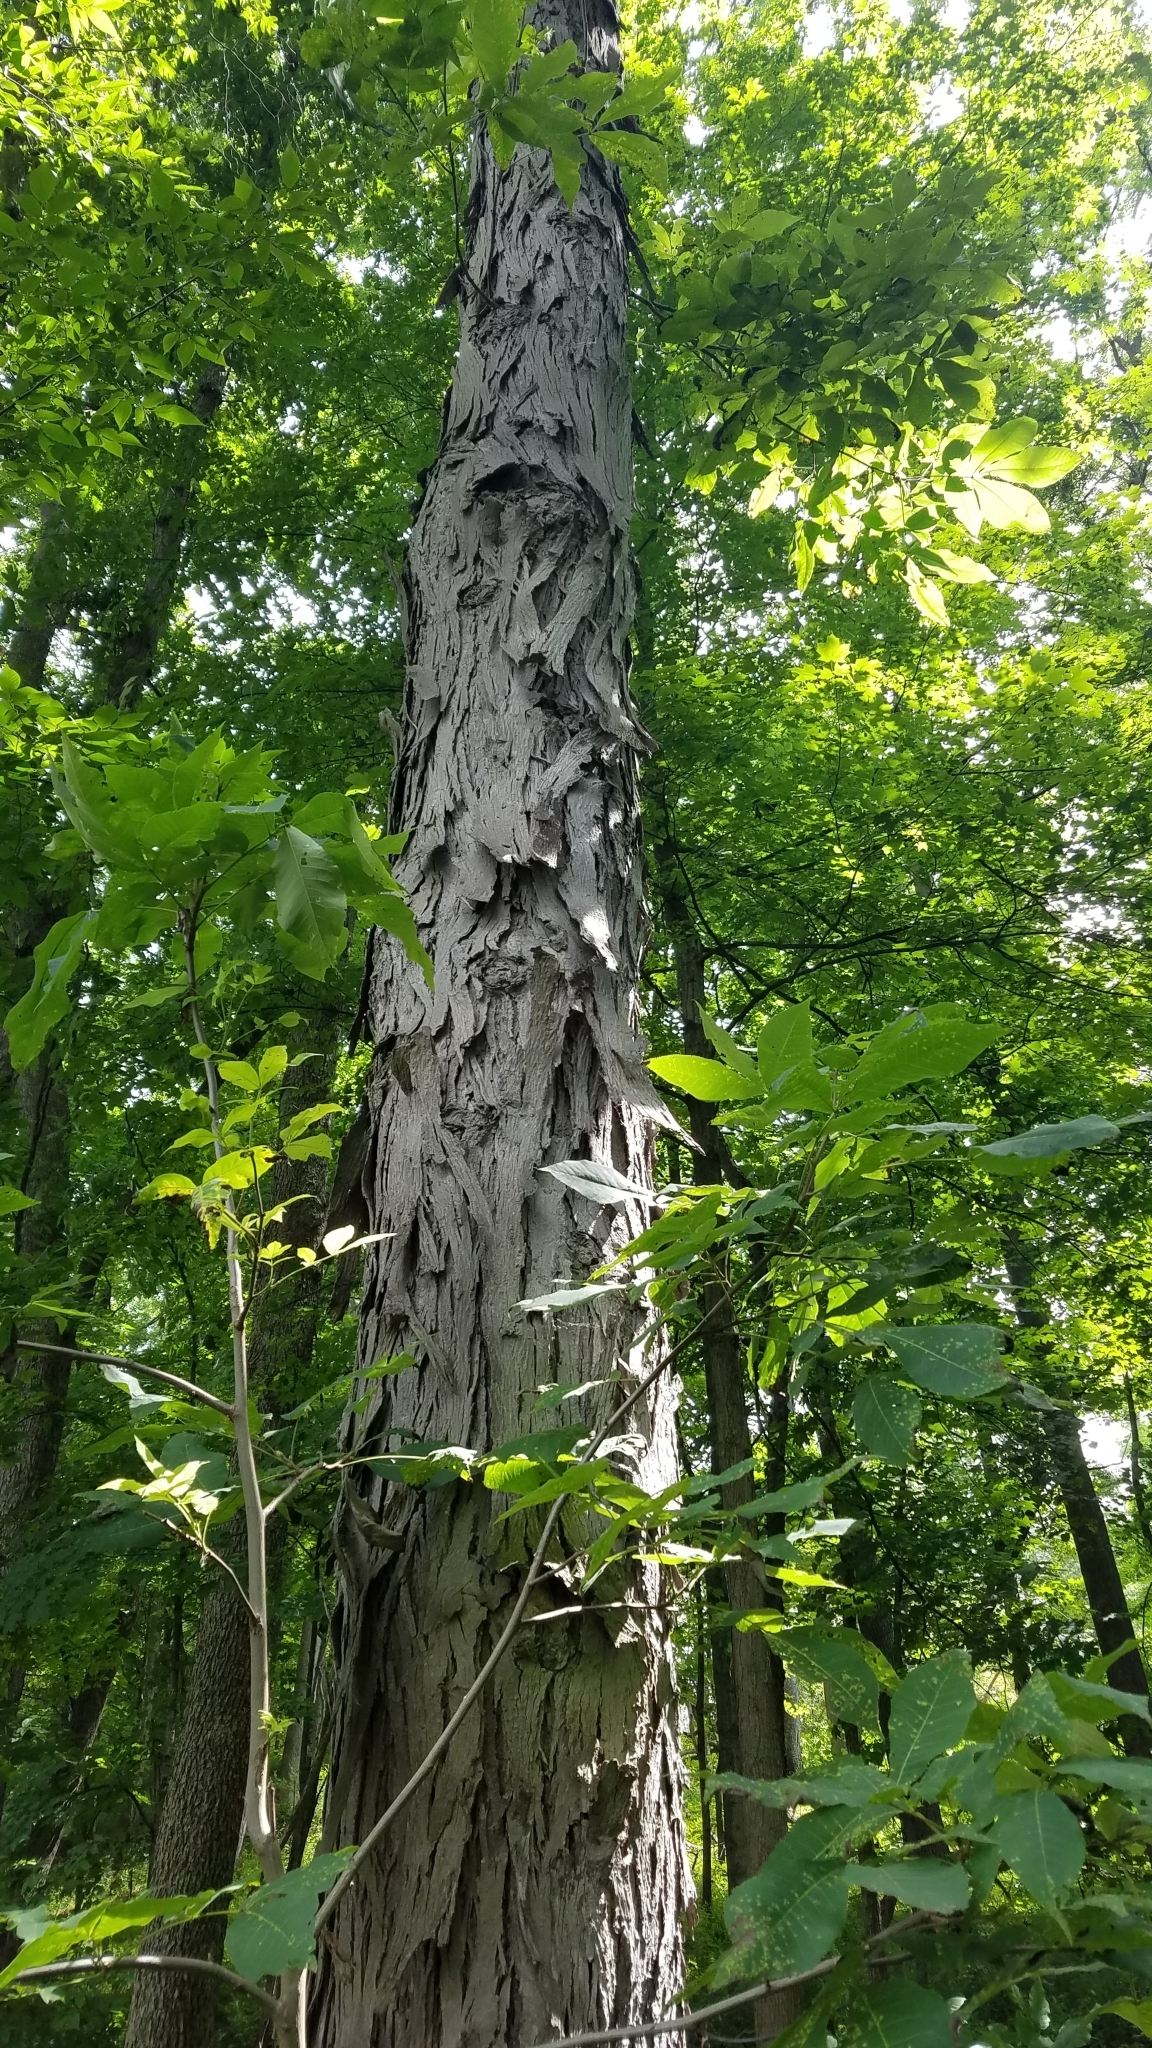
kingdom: Plantae
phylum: Tracheophyta
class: Magnoliopsida
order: Fagales
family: Juglandaceae
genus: Carya
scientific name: Carya ovata
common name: Shagbark hickory
